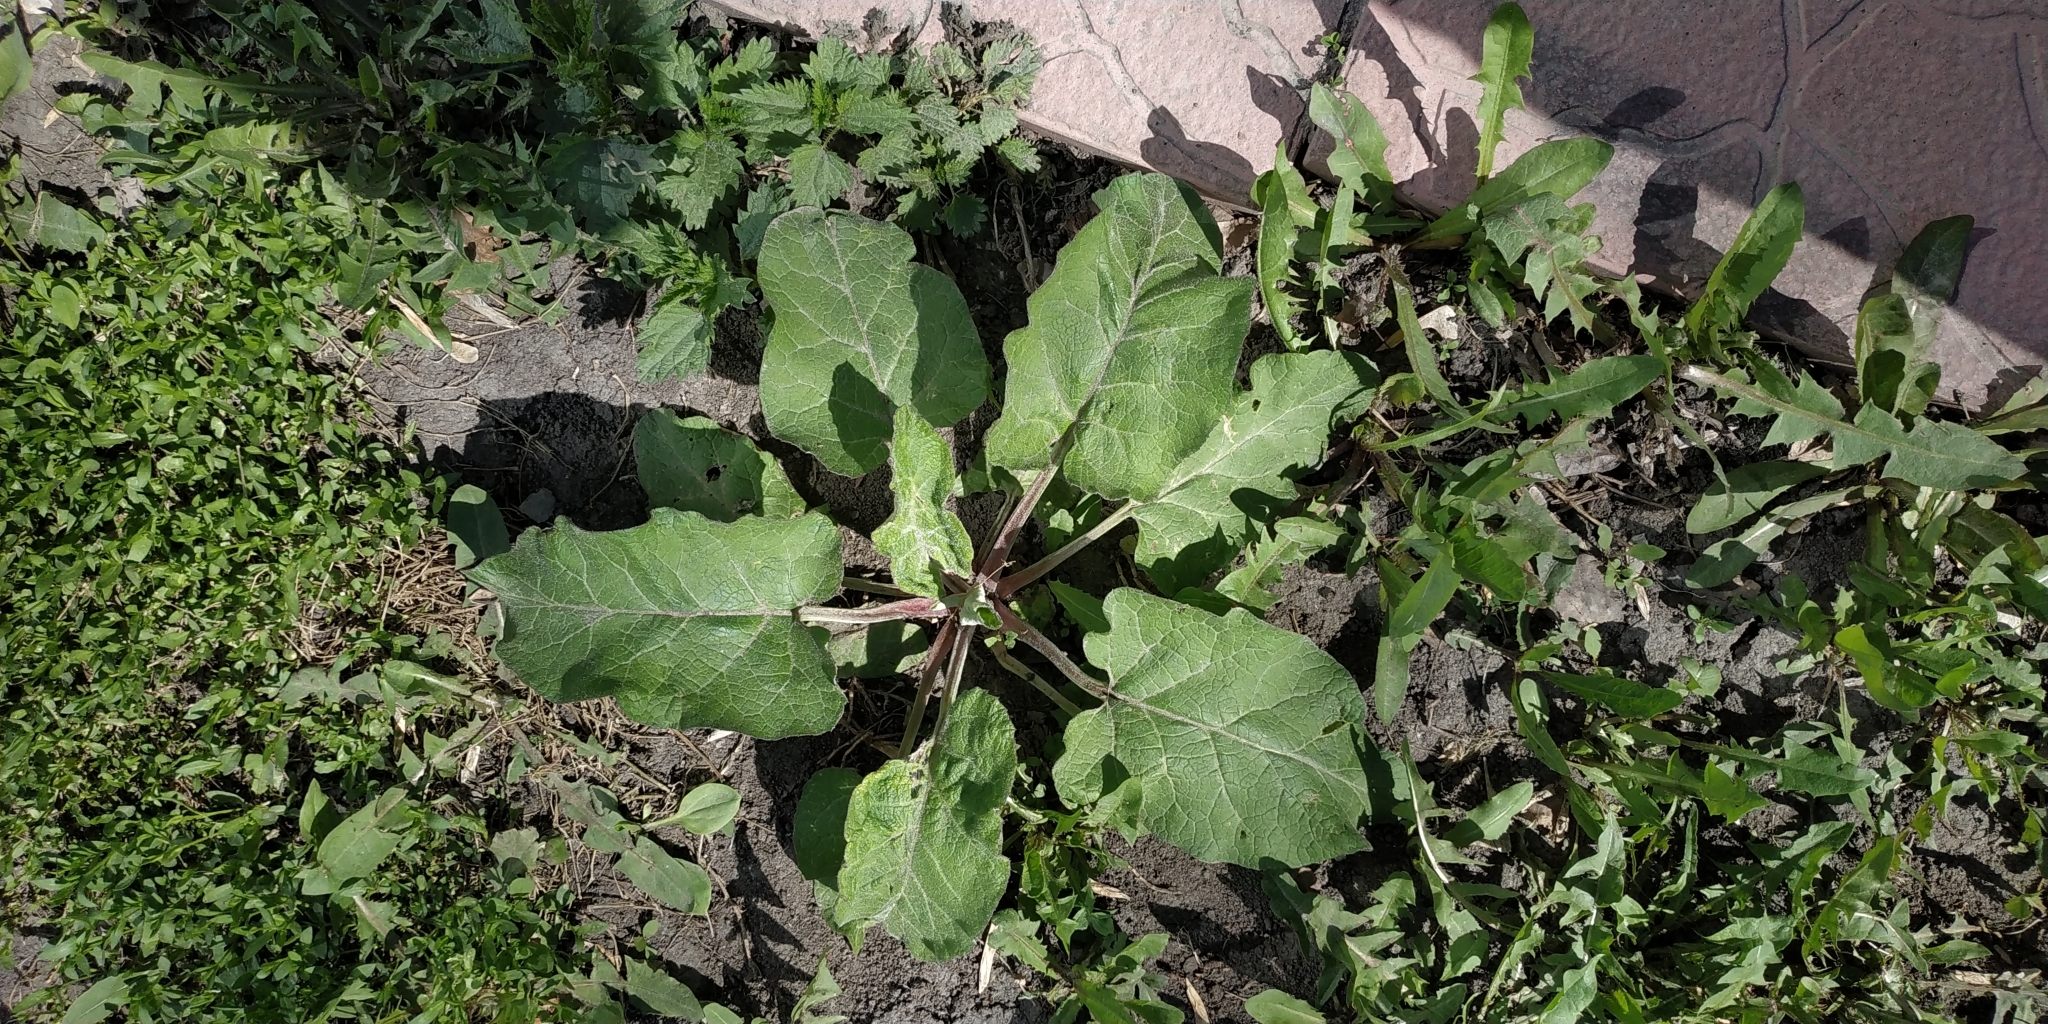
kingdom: Plantae
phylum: Tracheophyta
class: Magnoliopsida
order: Asterales
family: Asteraceae
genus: Arctium
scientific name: Arctium tomentosum
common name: Woolly burdock
